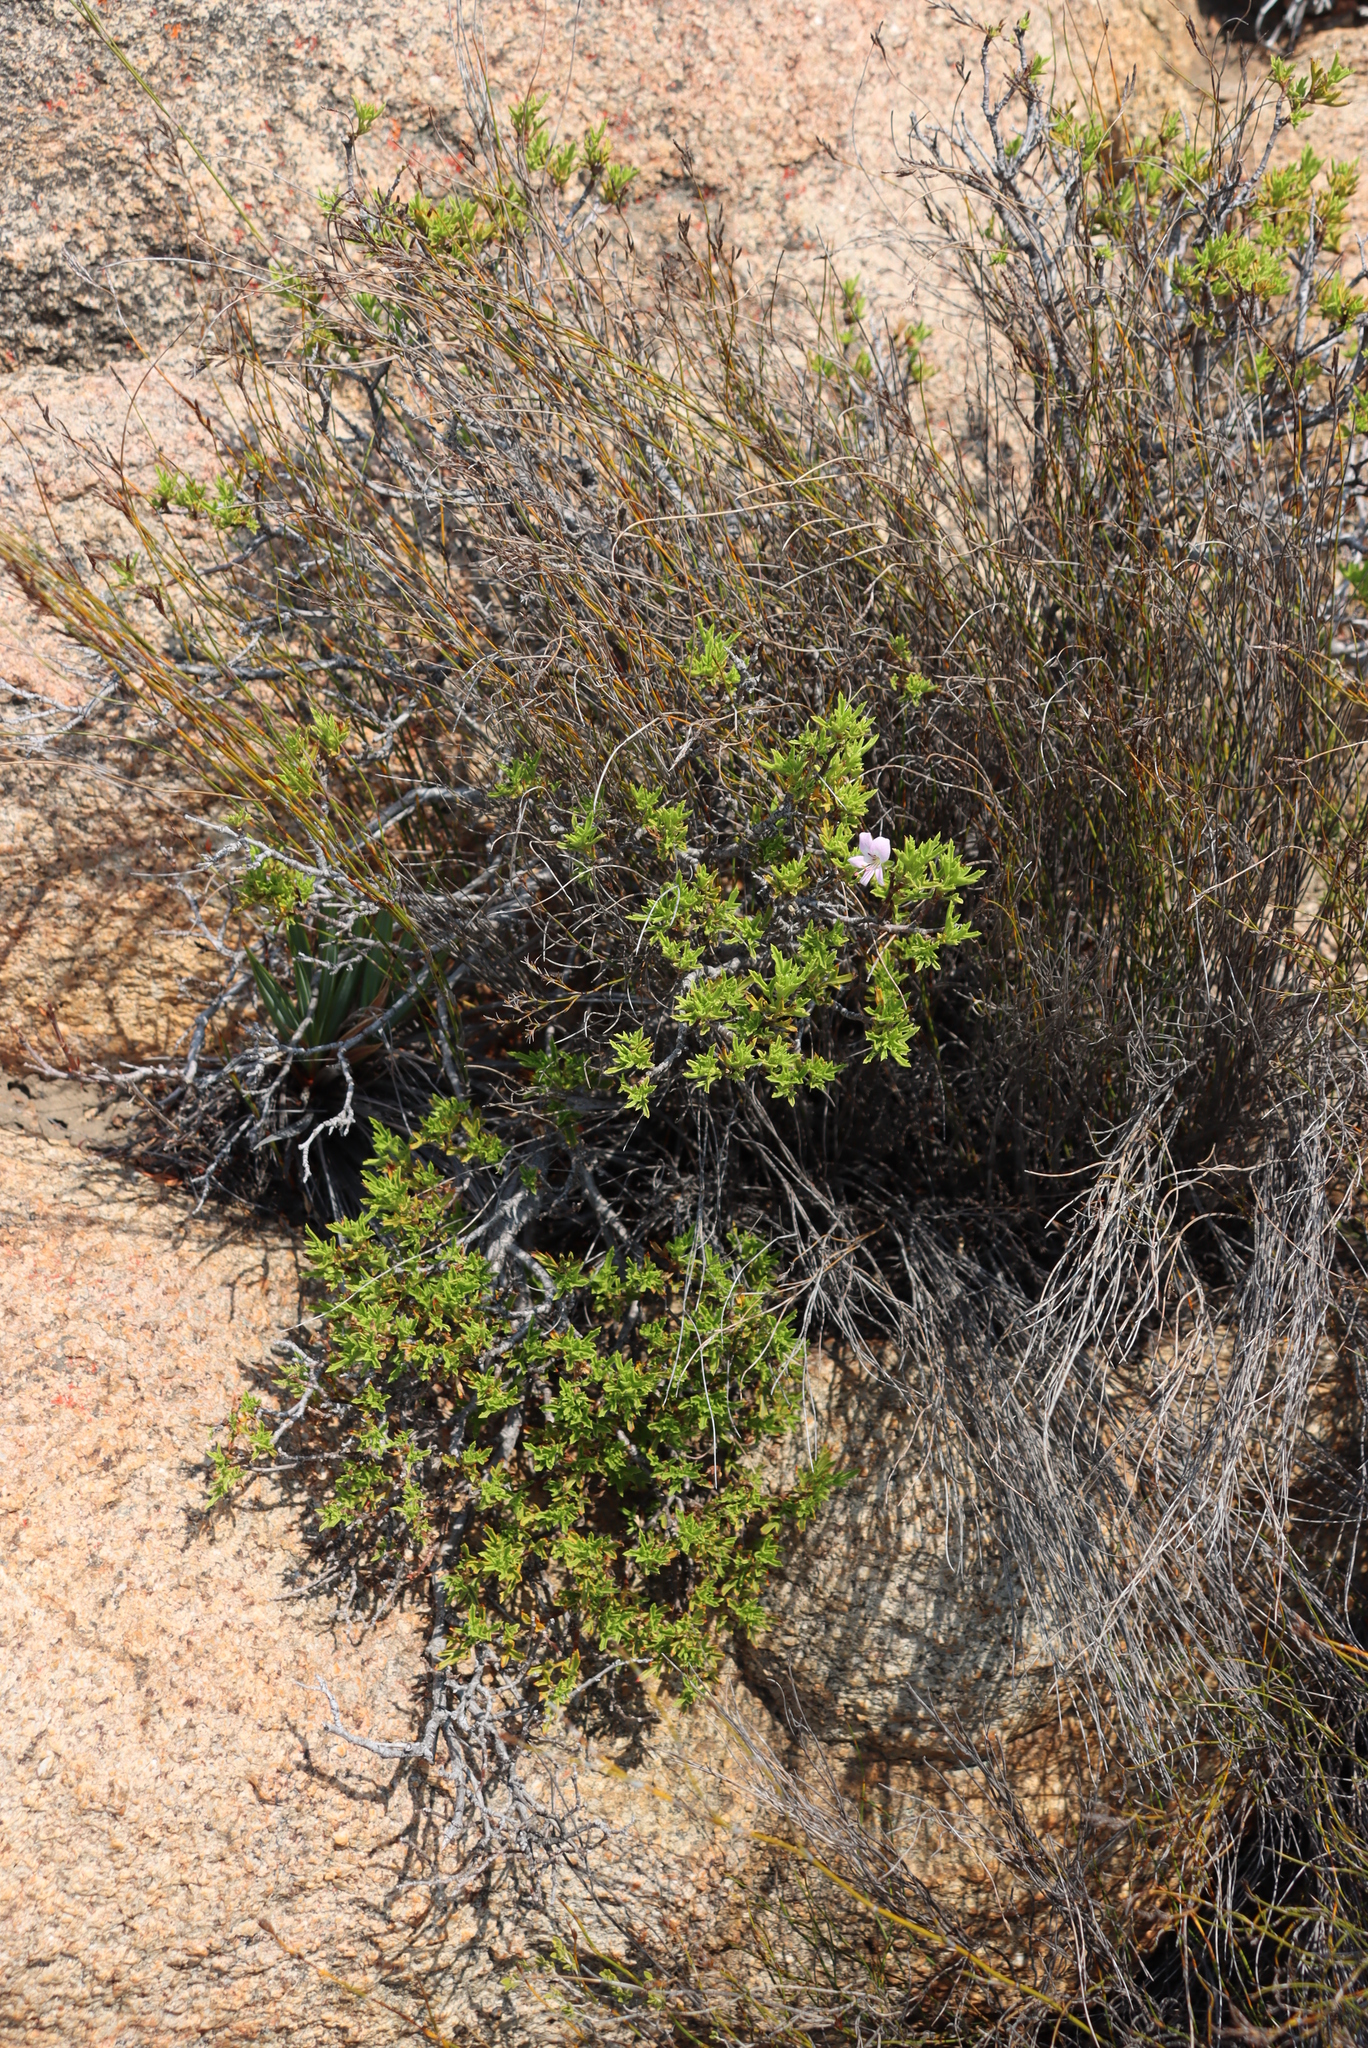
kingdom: Plantae
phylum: Tracheophyta
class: Magnoliopsida
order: Geraniales
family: Geraniaceae
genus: Pelargonium
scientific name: Pelargonium scabrum
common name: Apricot geranium
